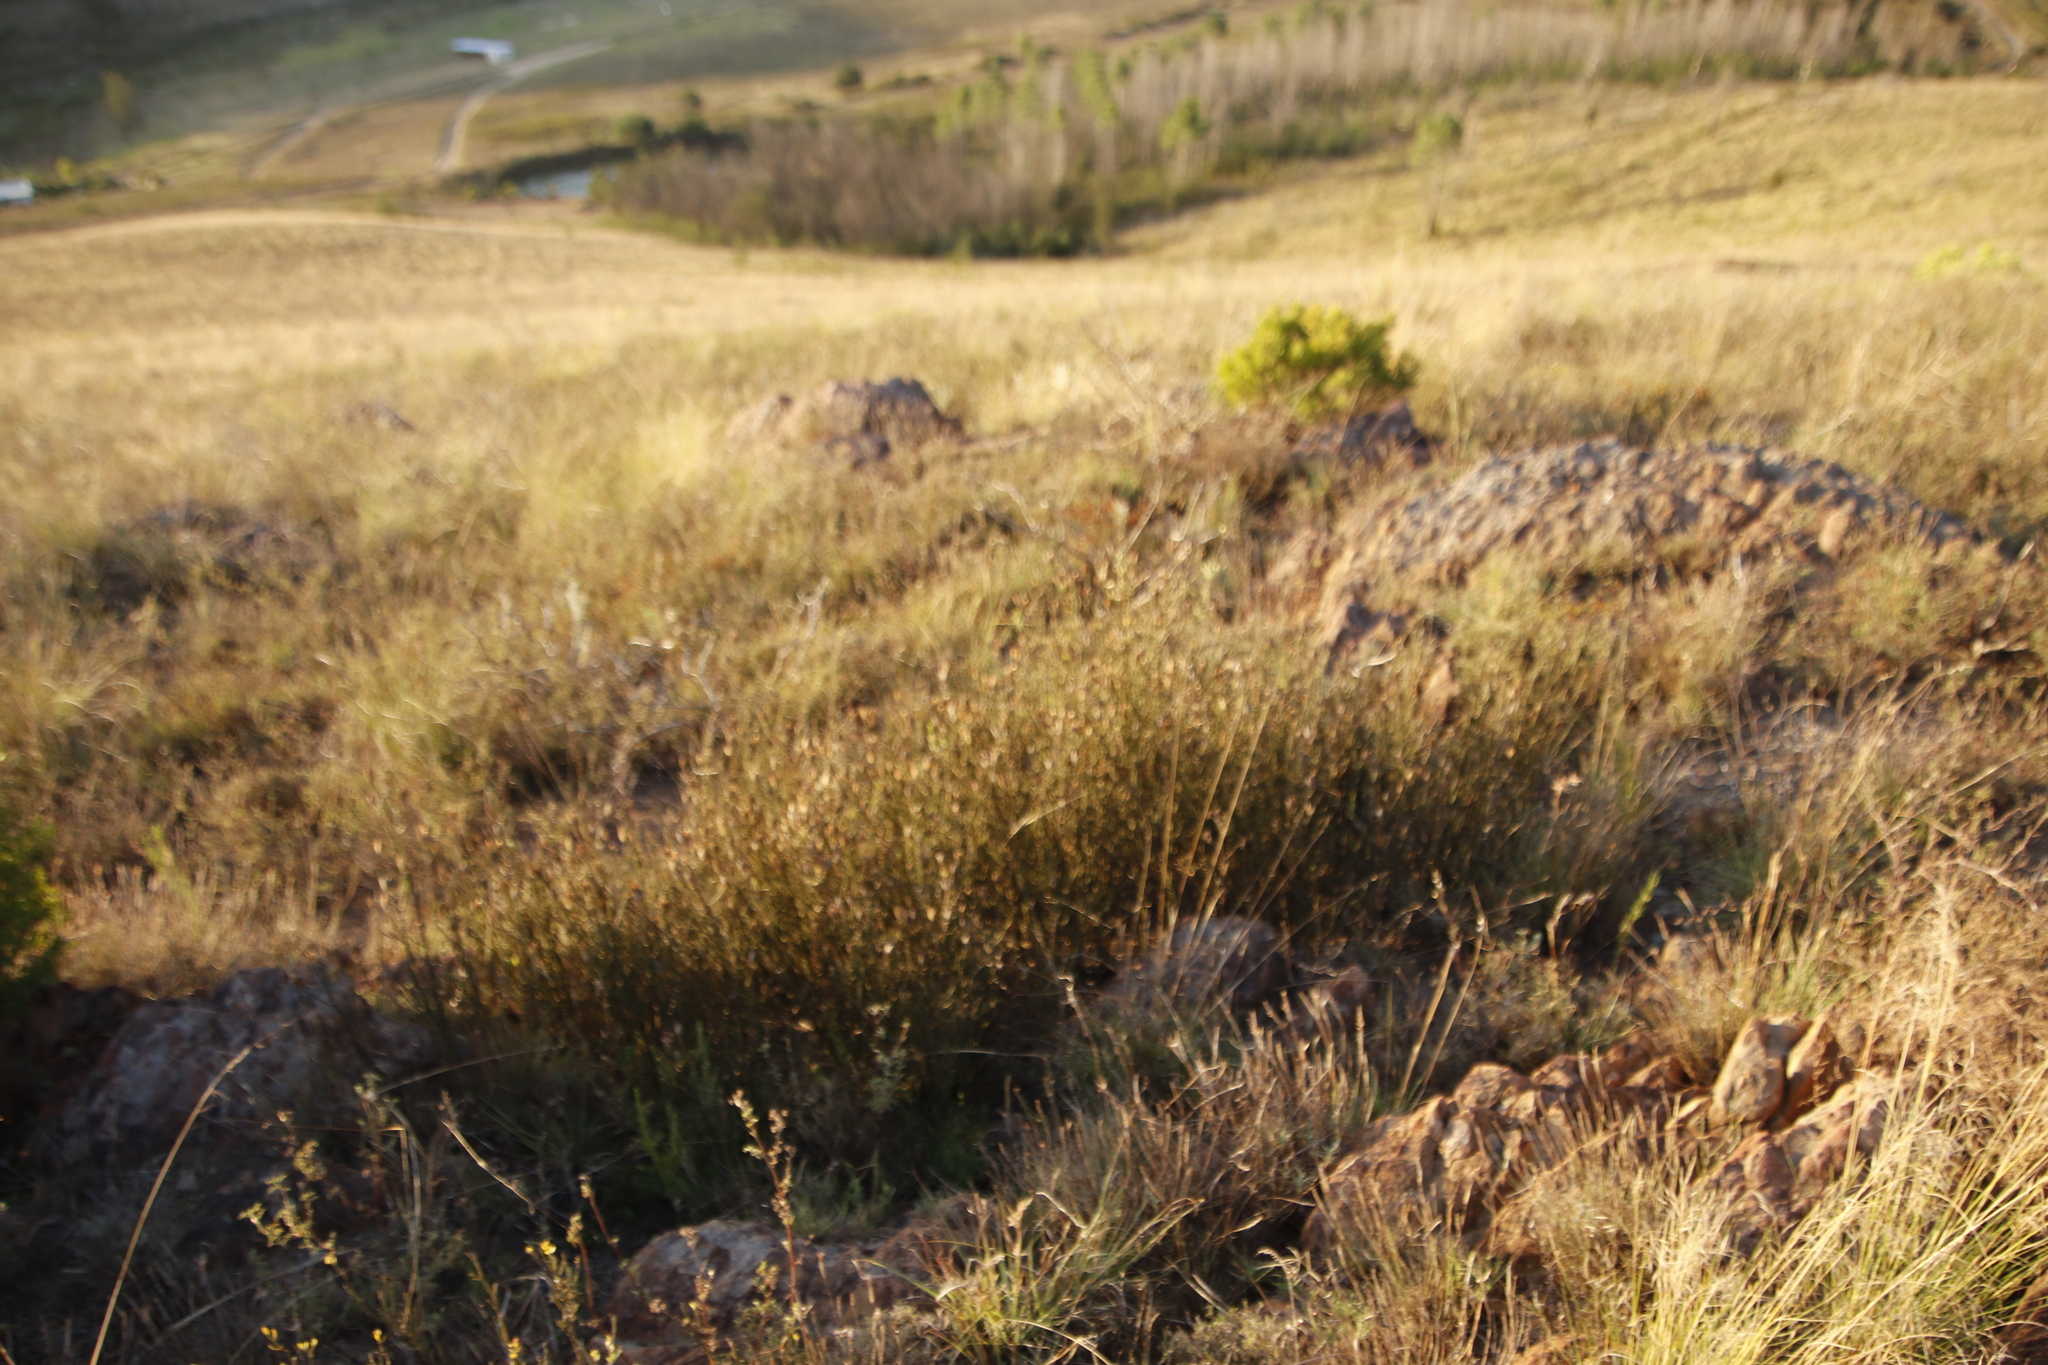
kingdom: Plantae
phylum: Tracheophyta
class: Magnoliopsida
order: Solanales
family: Montiniaceae
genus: Montinia
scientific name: Montinia caryophyllacea
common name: Wild clove-bush
